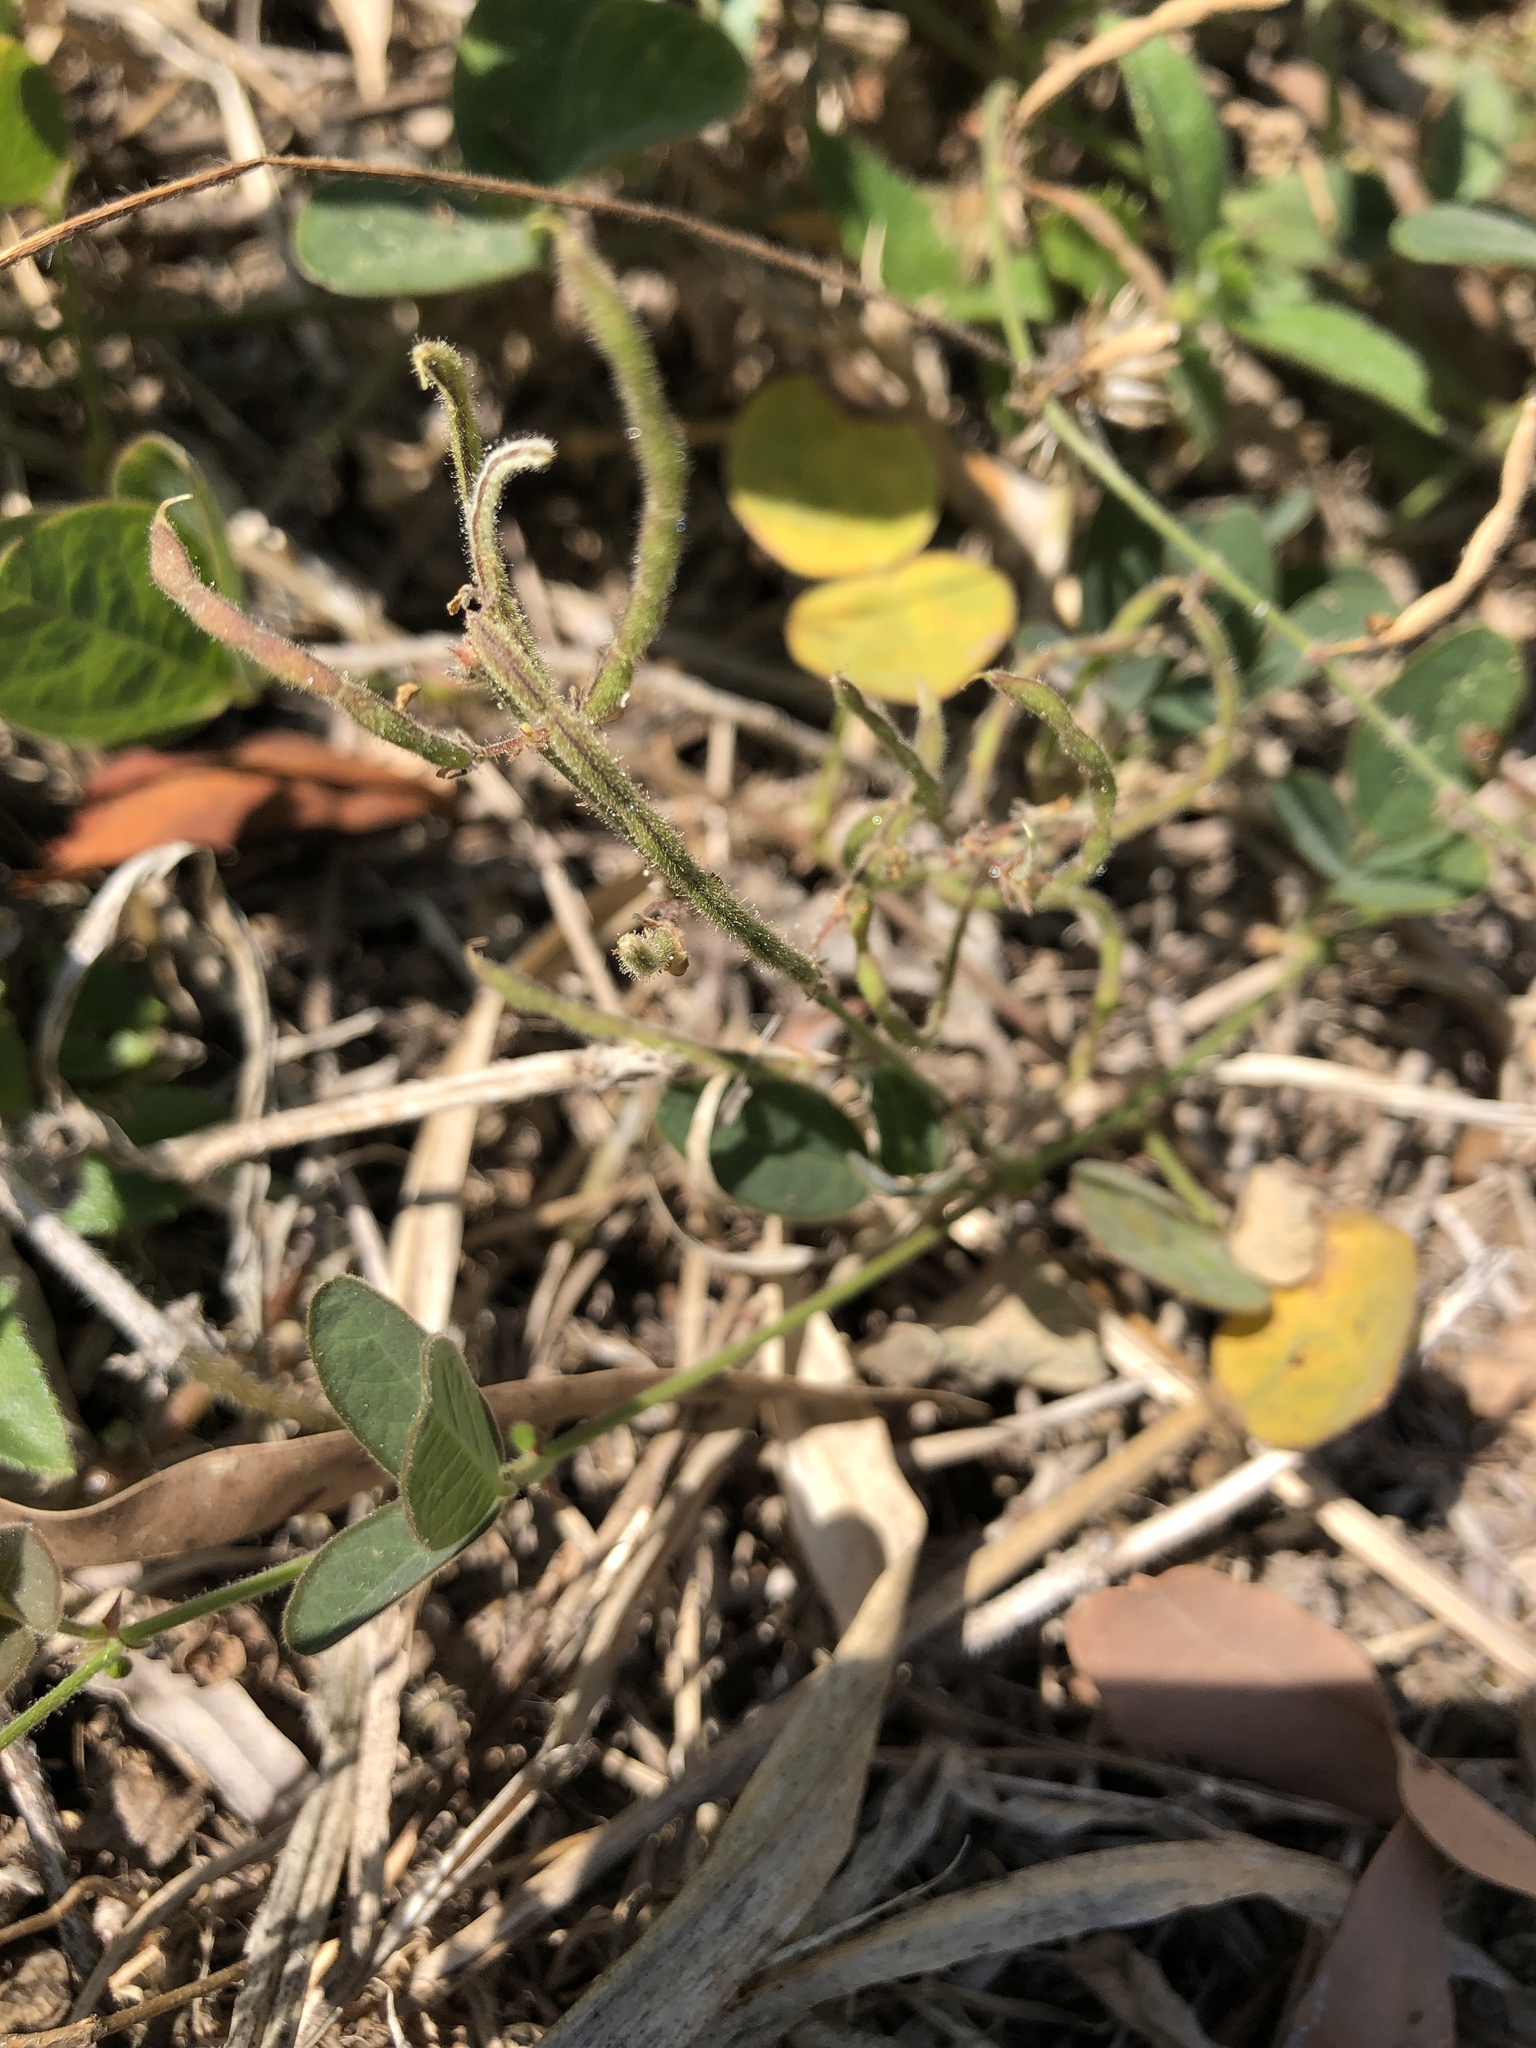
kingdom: Plantae
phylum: Tracheophyta
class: Magnoliopsida
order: Fabales
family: Fabaceae
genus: Desmodium
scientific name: Desmodium scorpiurus
